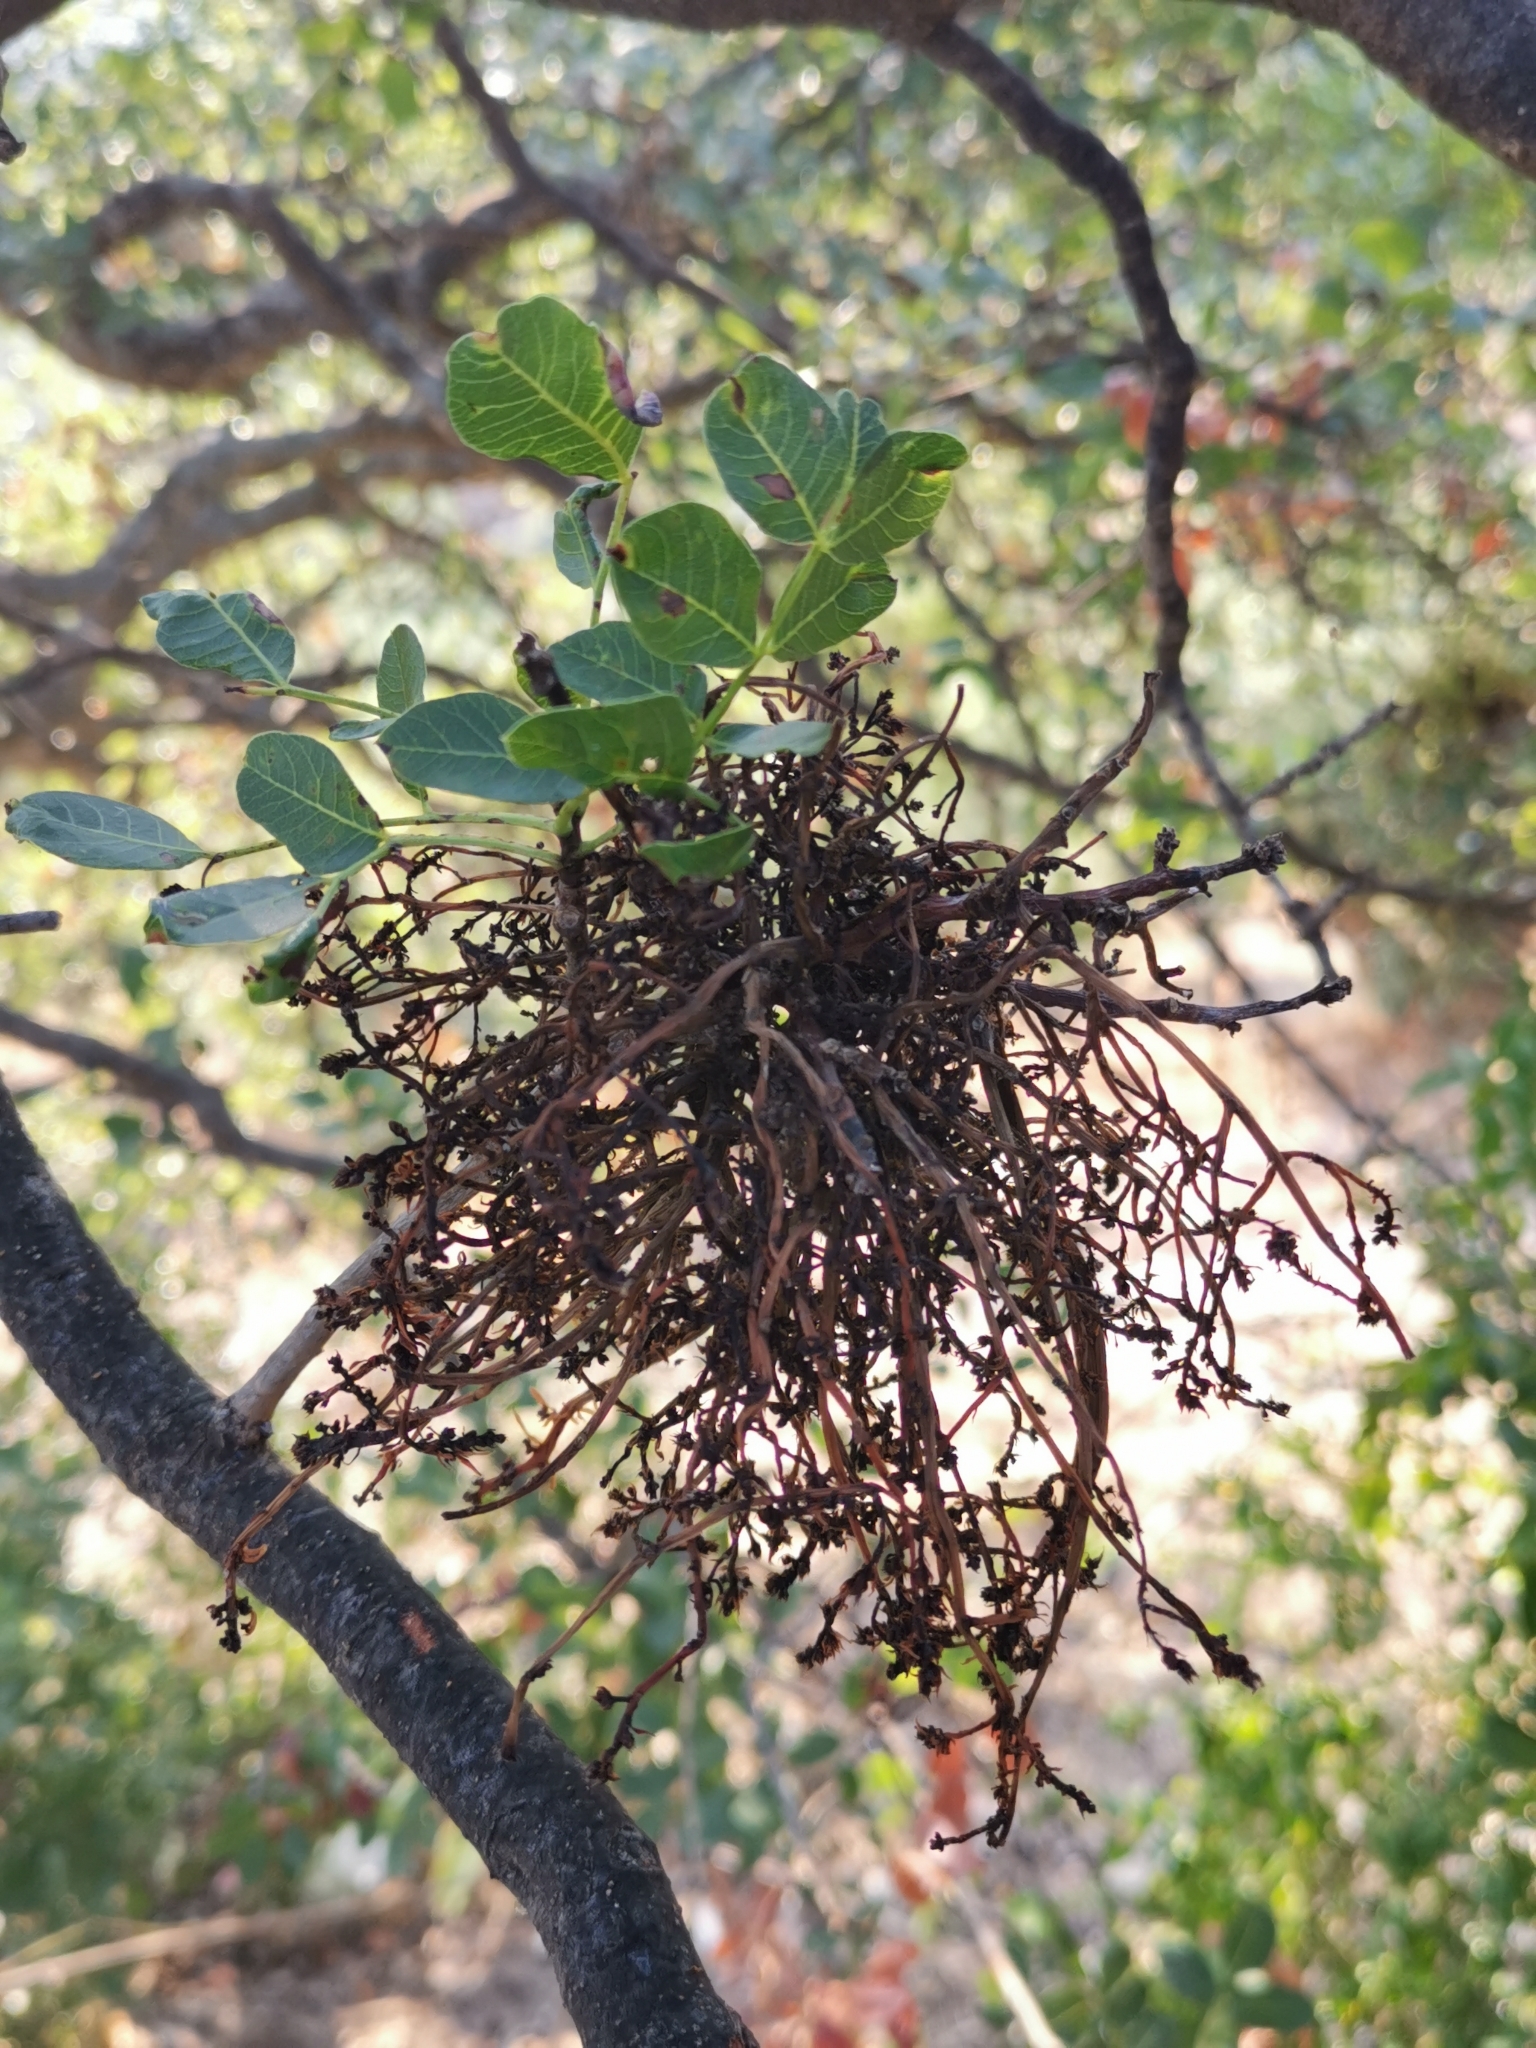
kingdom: Animalia
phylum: Arthropoda
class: Arachnida
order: Trombidiformes
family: Eriophyidae
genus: Aceria
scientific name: Aceria pistaciae
